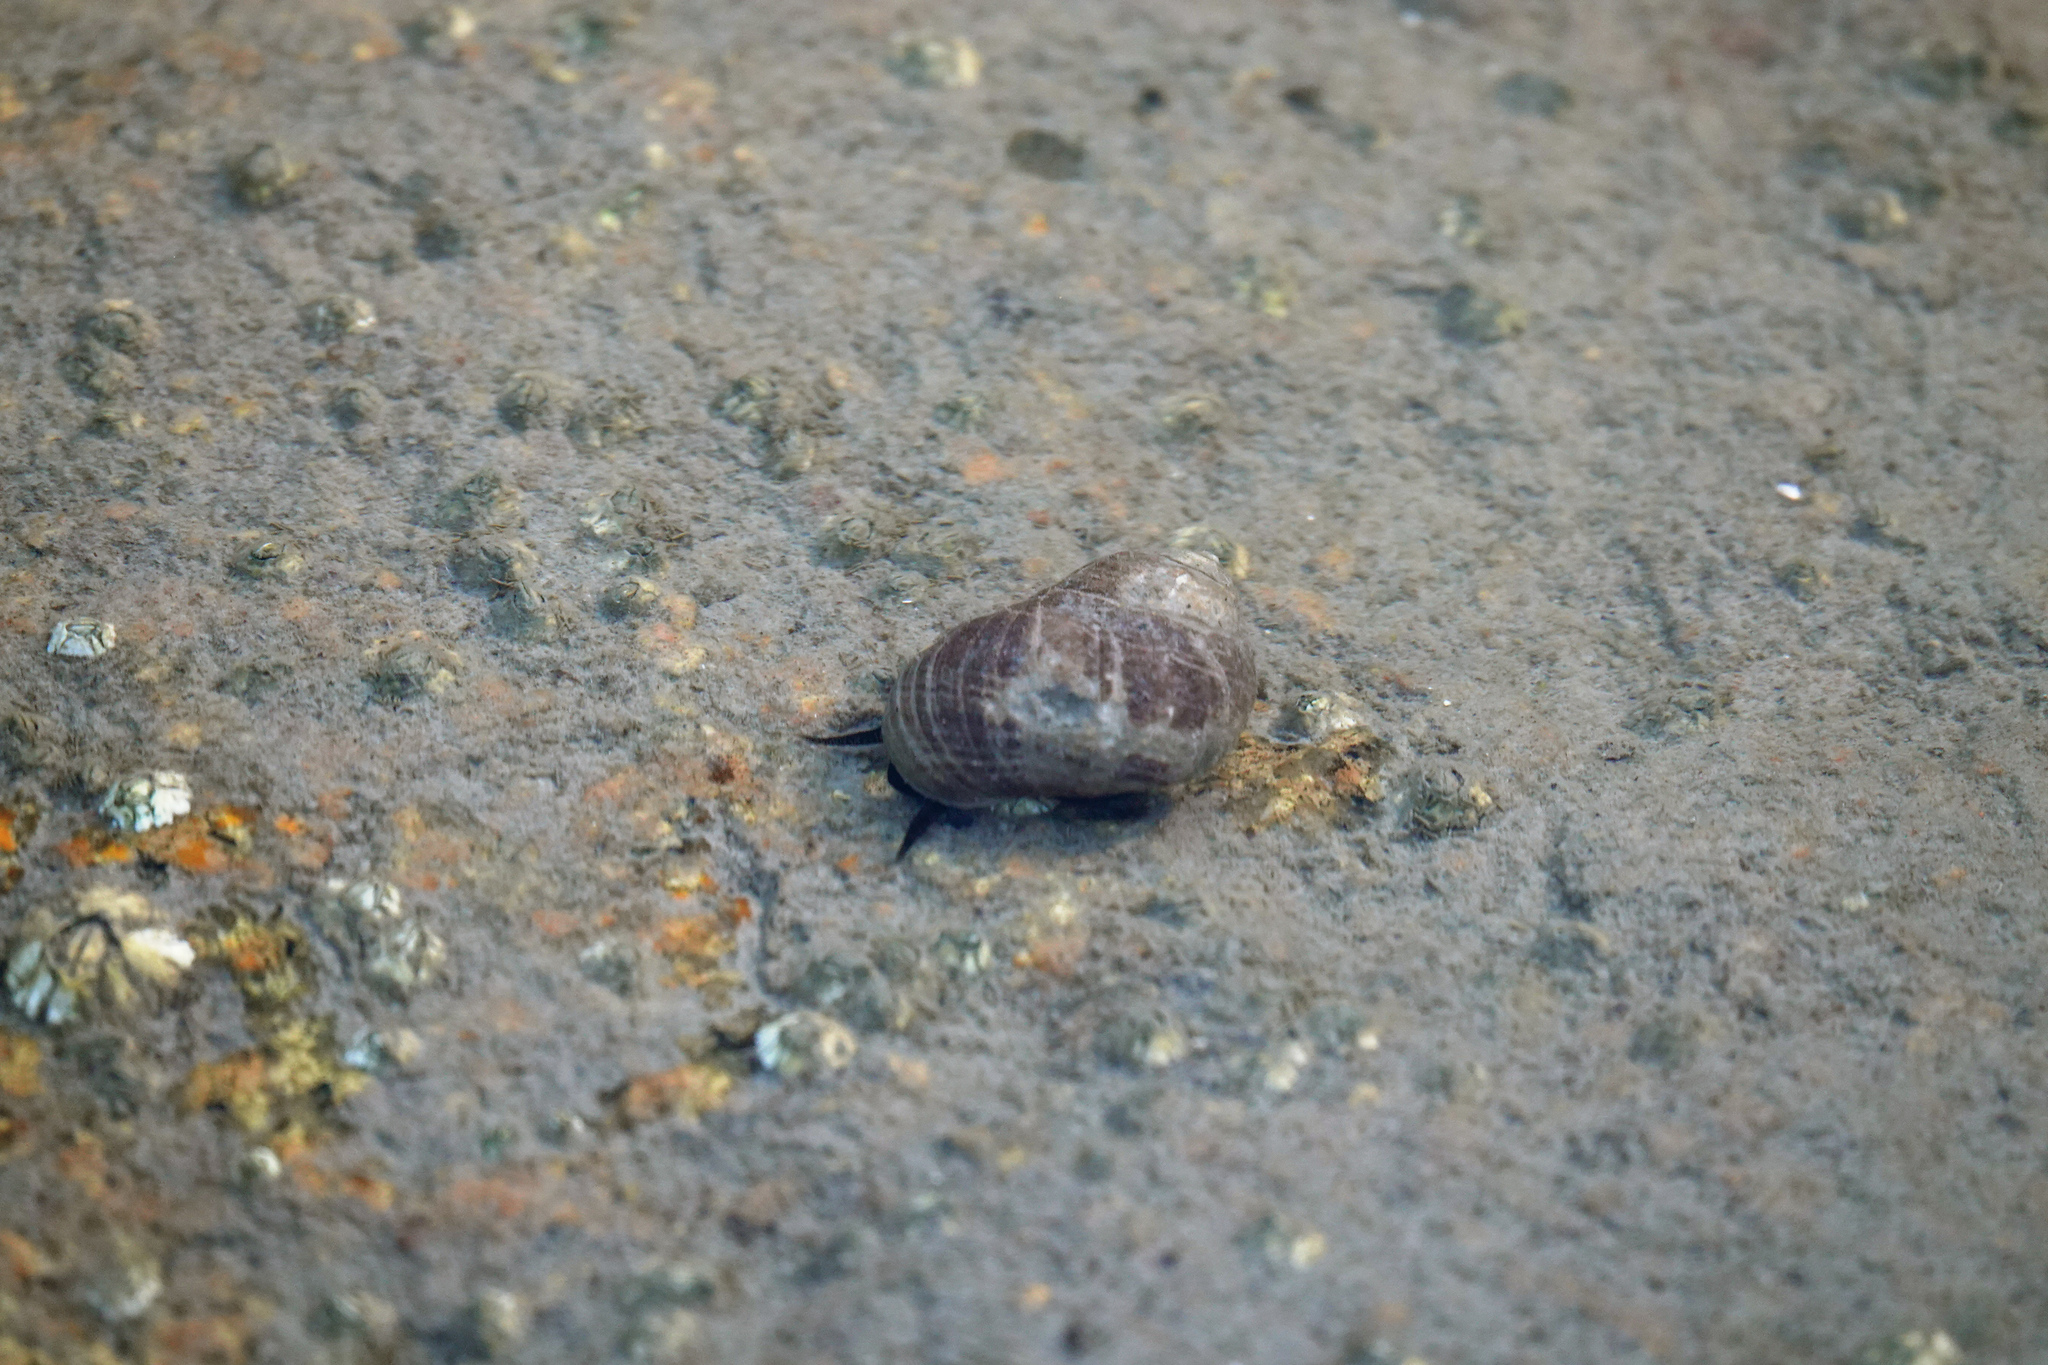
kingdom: Animalia
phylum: Mollusca
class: Gastropoda
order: Littorinimorpha
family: Littorinidae
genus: Littorina
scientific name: Littorina littorea
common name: Common periwinkle
